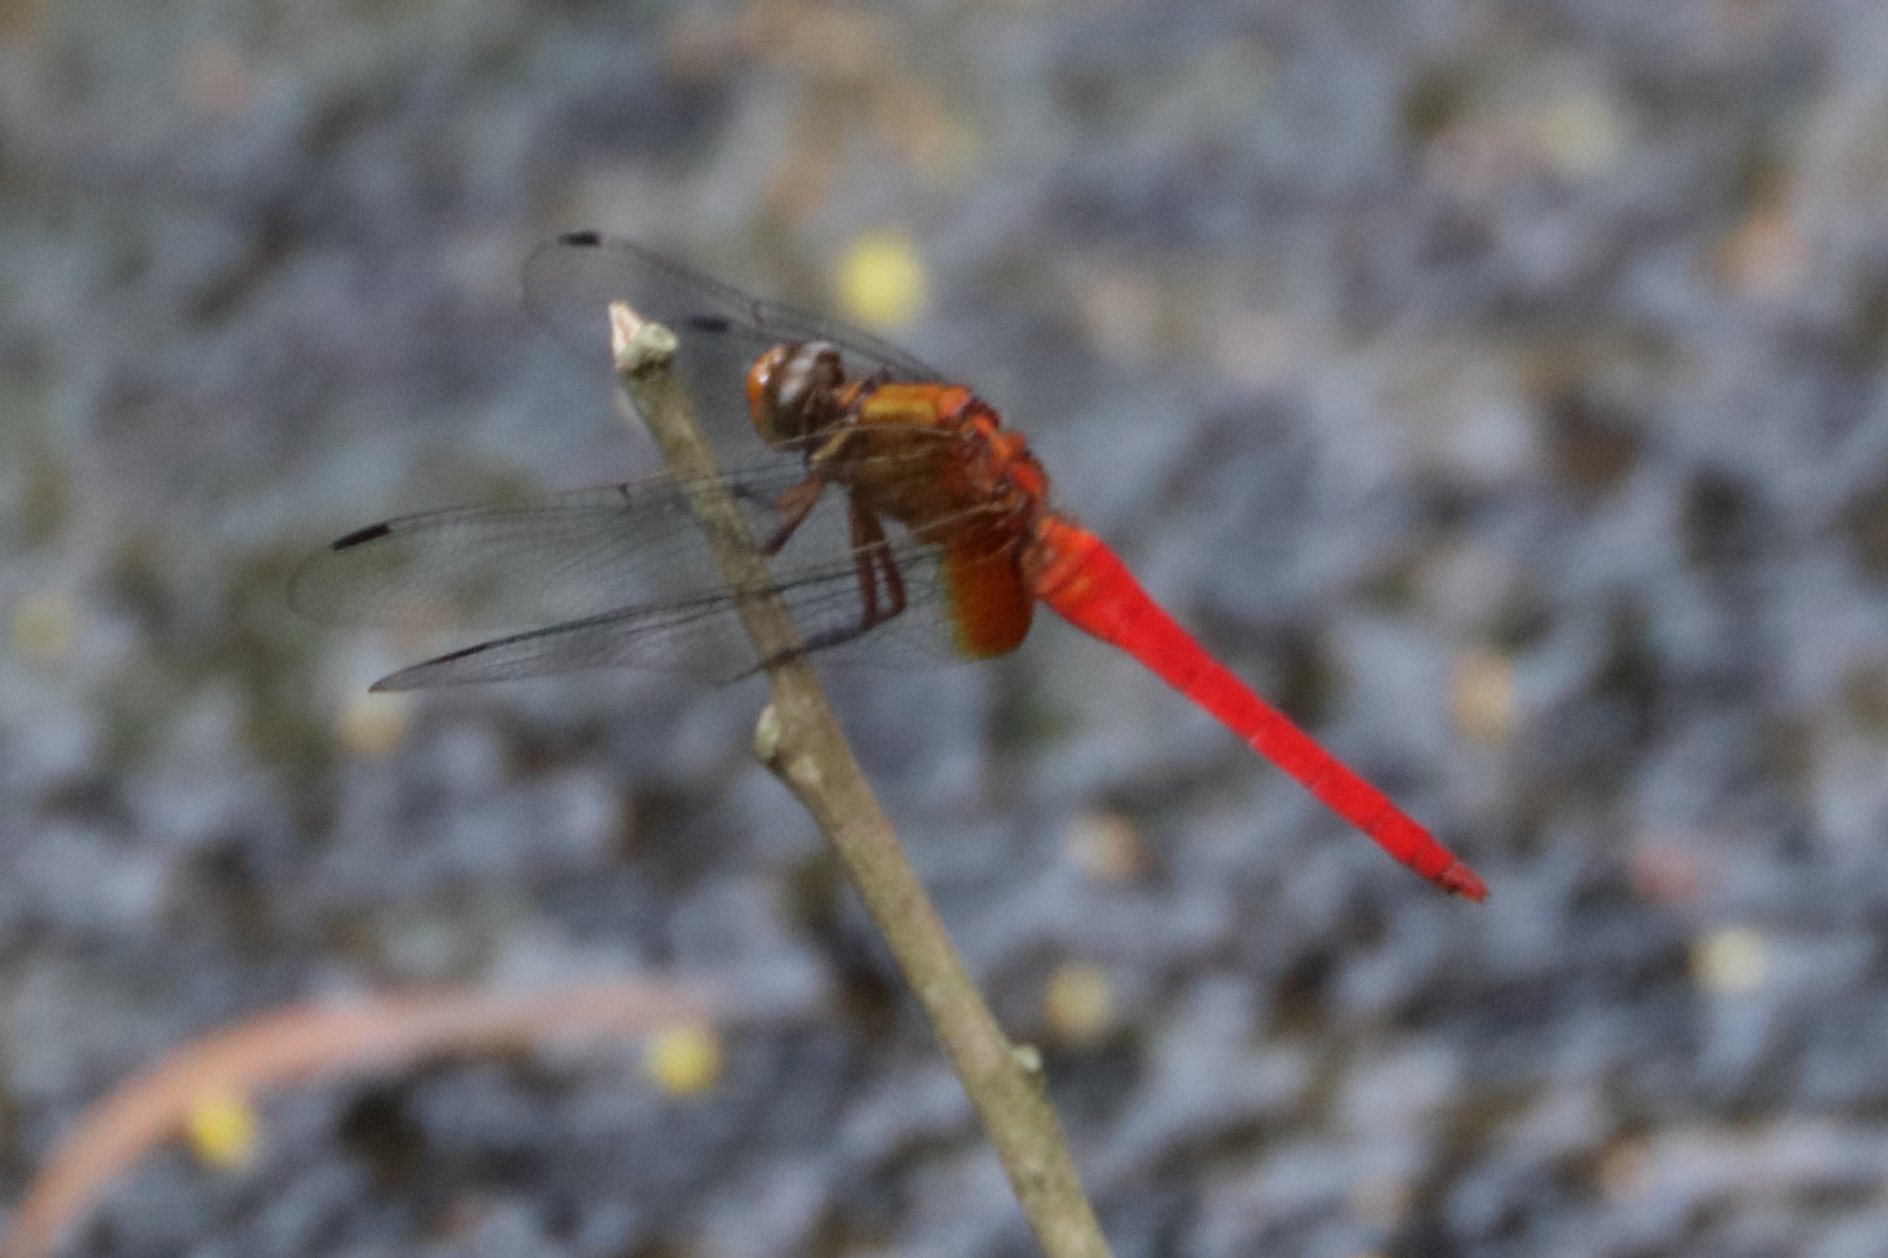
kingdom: Animalia
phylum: Arthropoda
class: Insecta
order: Odonata
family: Libellulidae
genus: Orthetrum
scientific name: Orthetrum testaceum
